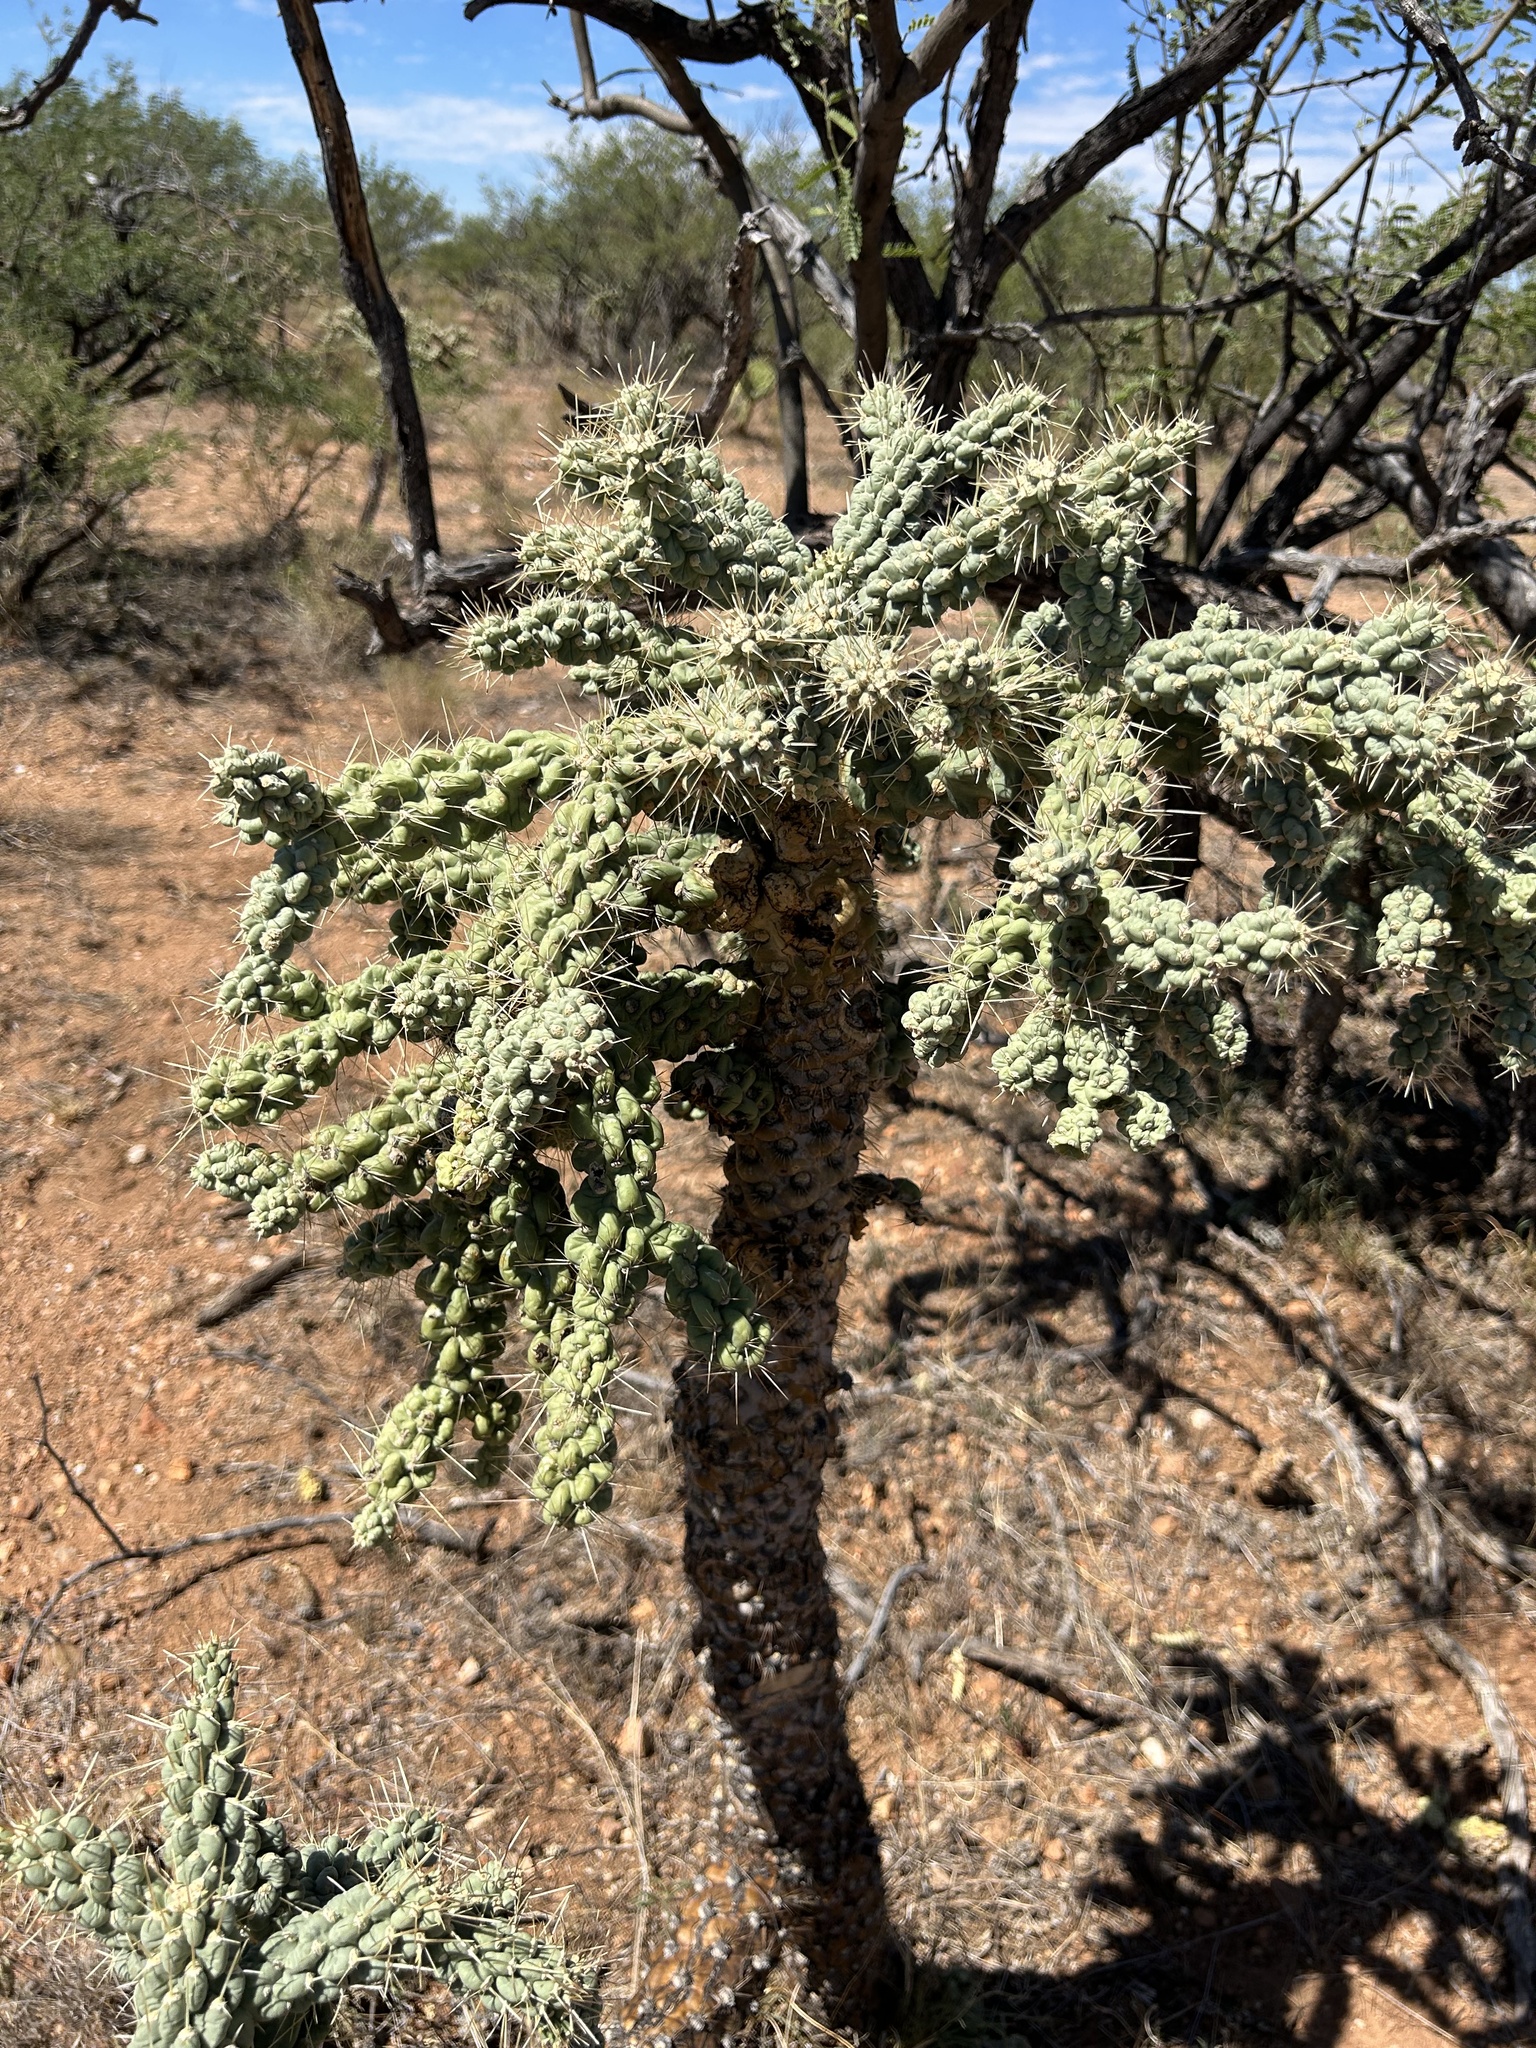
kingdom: Plantae
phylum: Tracheophyta
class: Magnoliopsida
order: Caryophyllales
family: Cactaceae
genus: Cylindropuntia
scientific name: Cylindropuntia fulgida
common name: Jumping cholla
